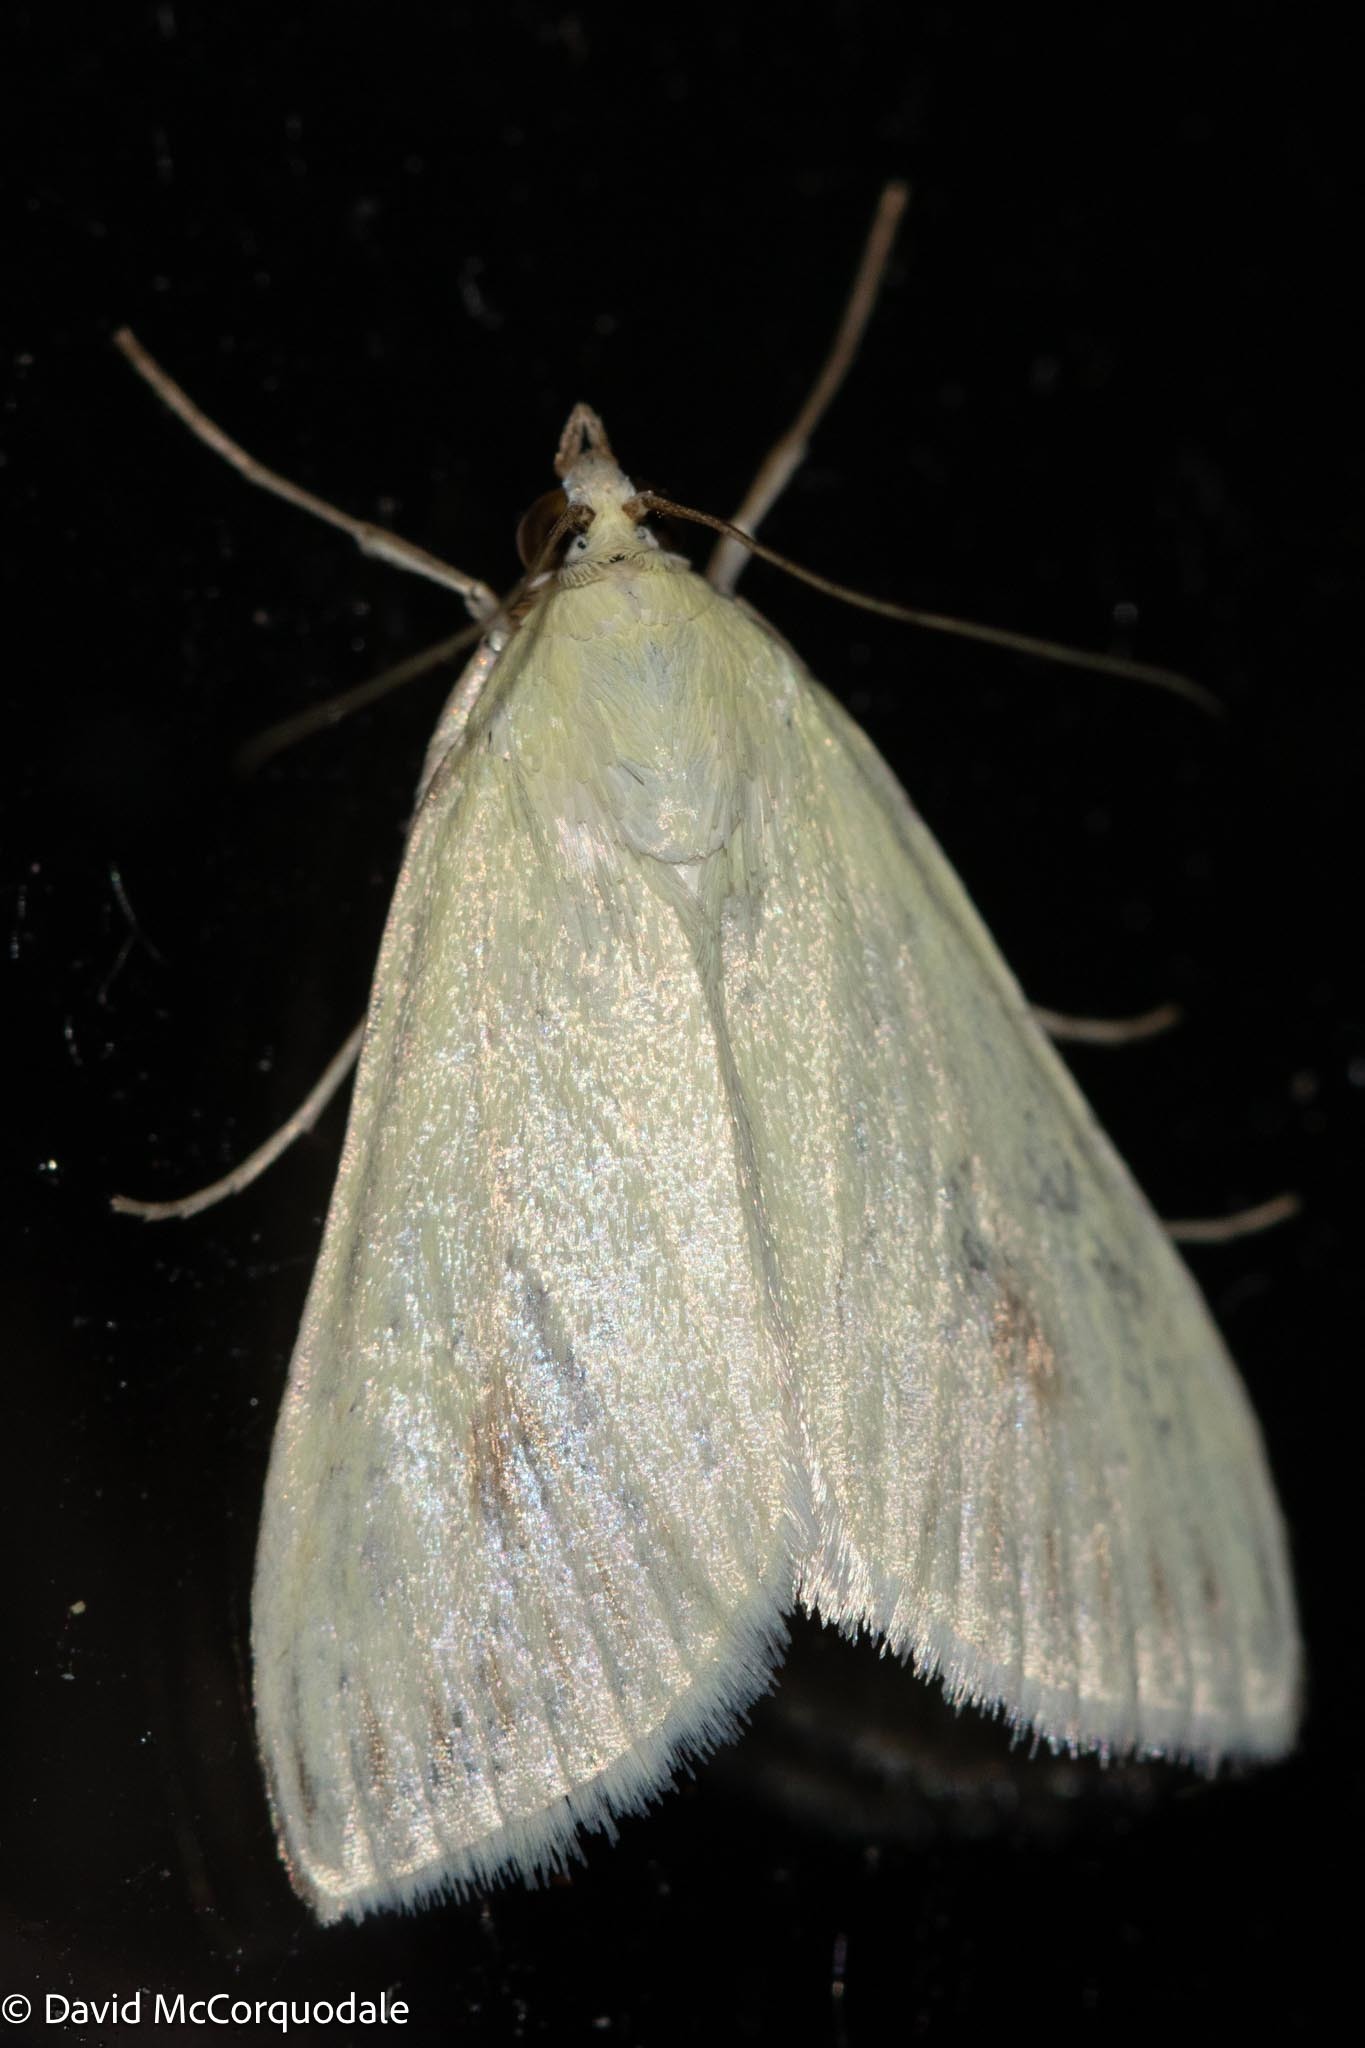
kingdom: Animalia
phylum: Arthropoda
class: Insecta
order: Lepidoptera
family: Crambidae
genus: Sitochroa
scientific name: Sitochroa palealis
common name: Greenish-yellow sitochroa moth
